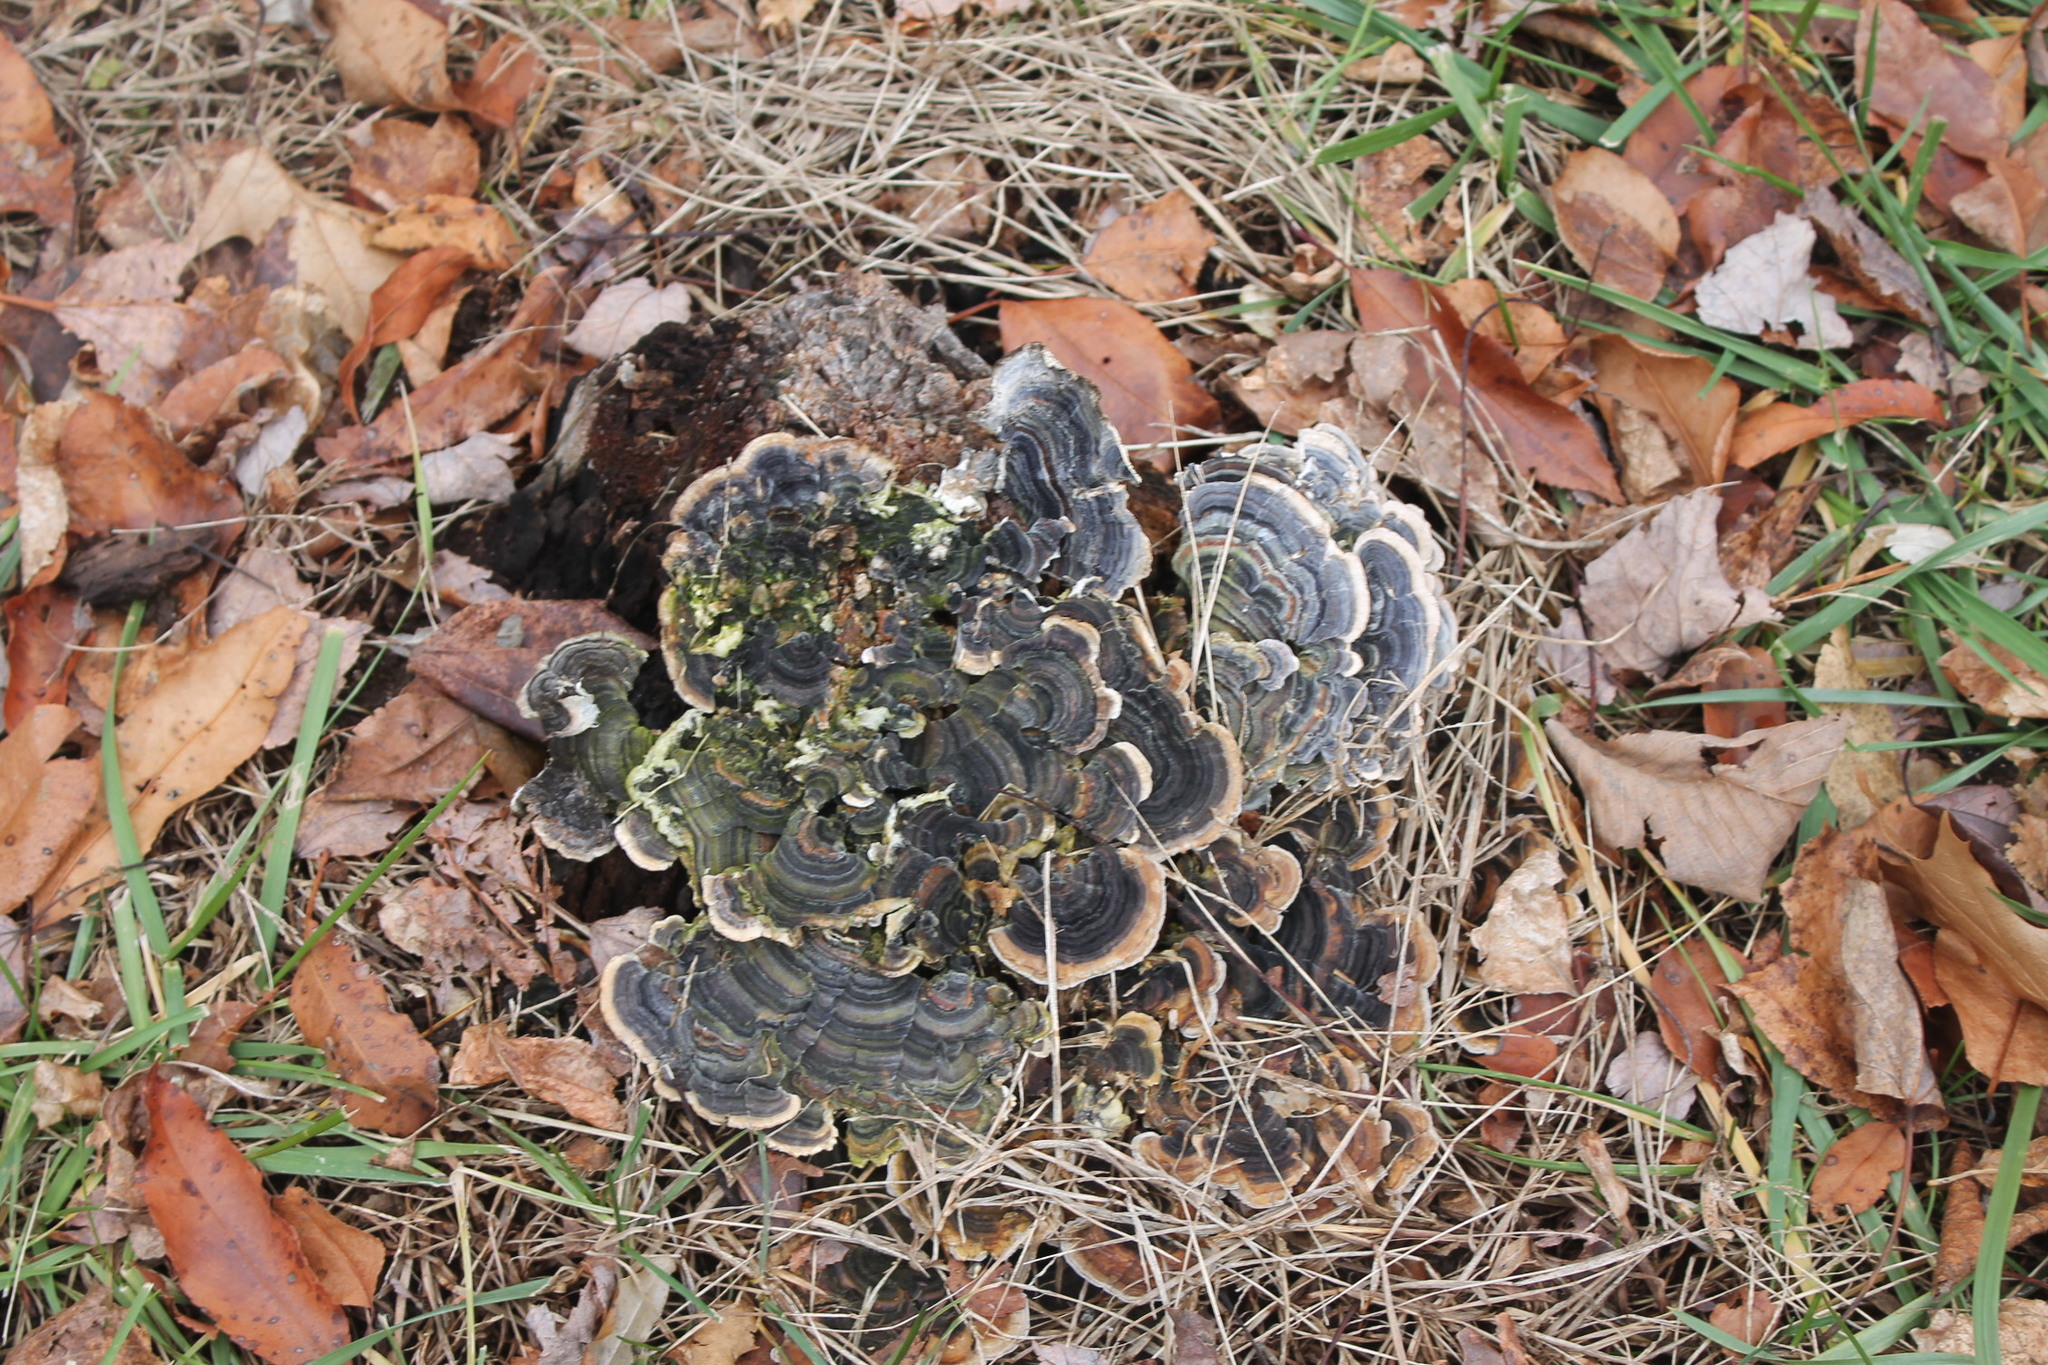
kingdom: Fungi
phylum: Basidiomycota
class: Agaricomycetes
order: Polyporales
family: Polyporaceae
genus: Trametes
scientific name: Trametes versicolor
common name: Turkeytail
